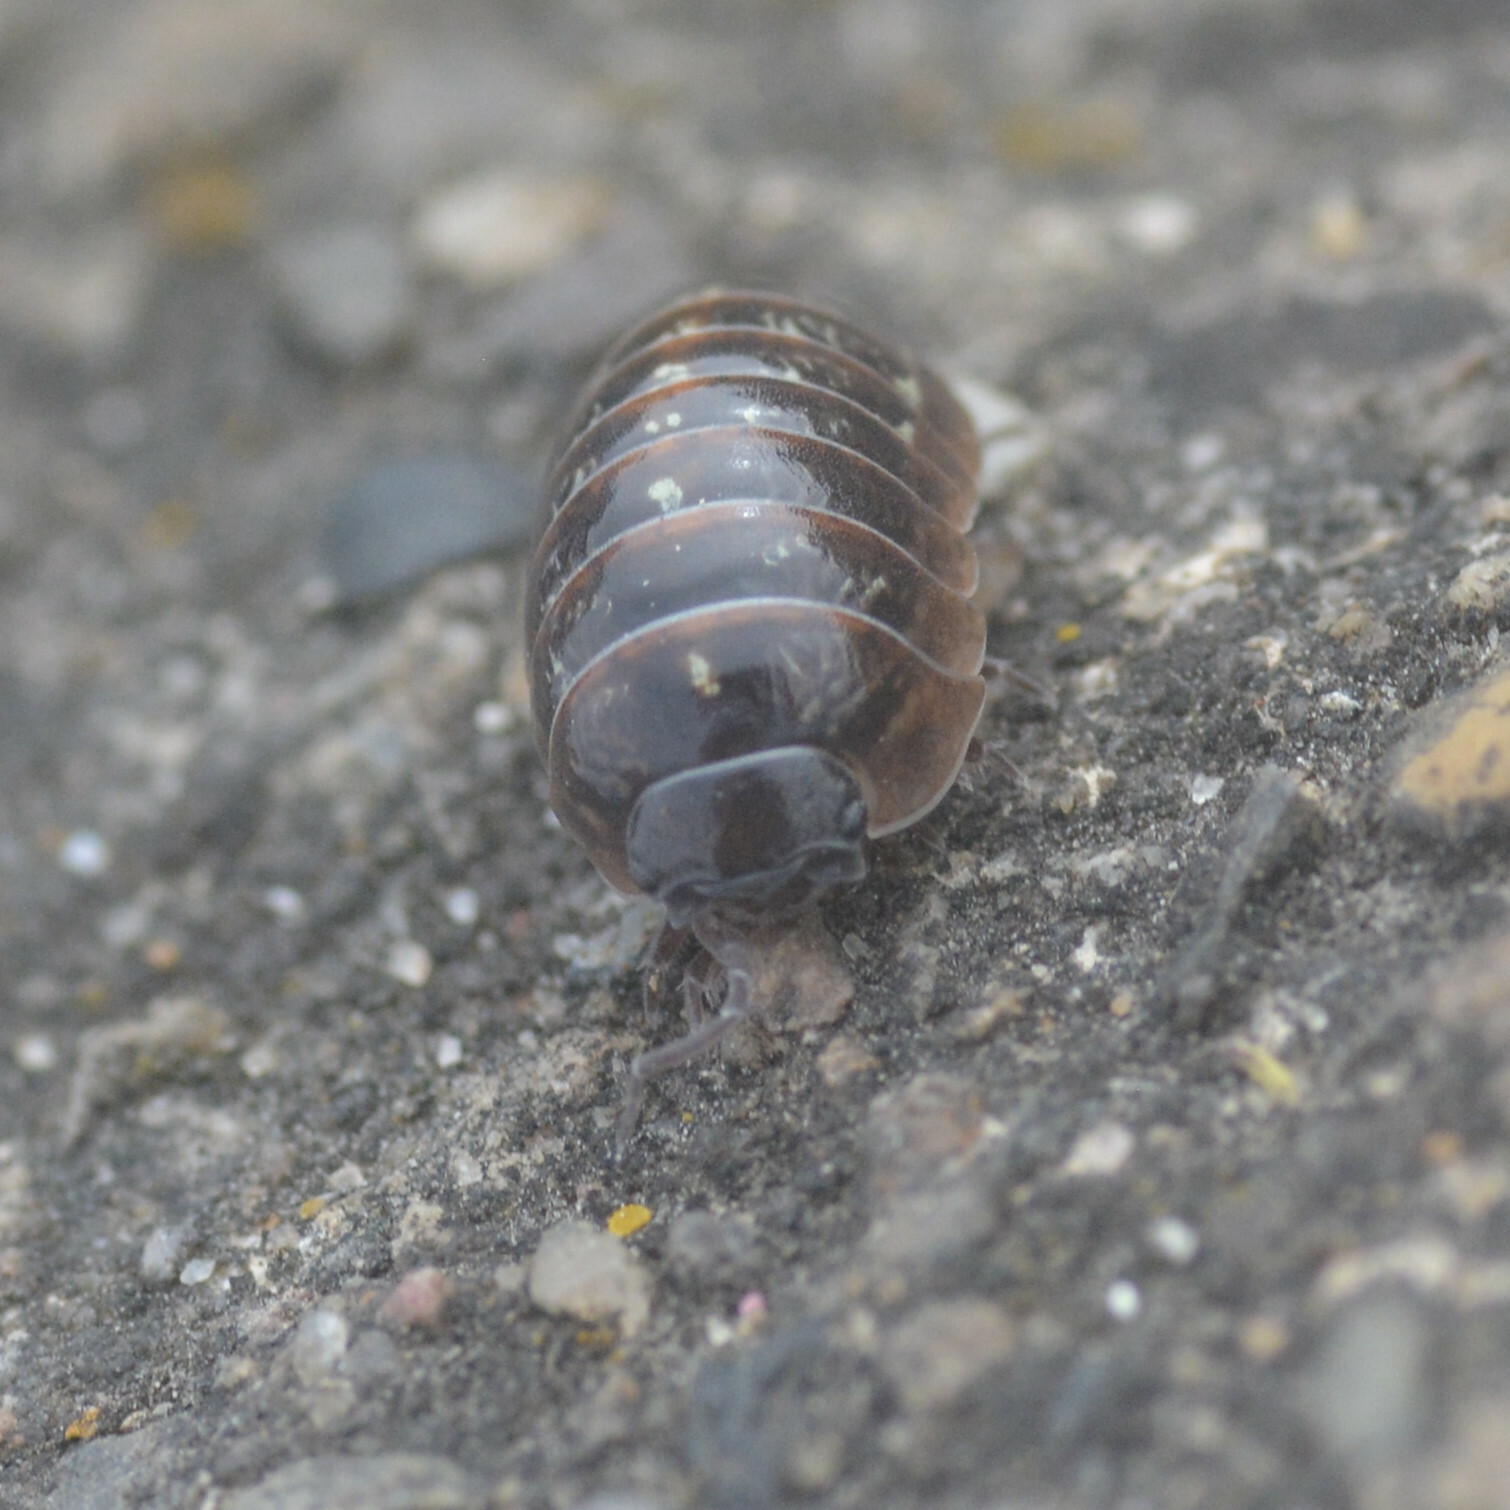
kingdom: Animalia
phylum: Arthropoda
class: Malacostraca
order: Isopoda
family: Armadillidiidae
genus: Armadillidium
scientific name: Armadillidium vulgare
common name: Common pill woodlouse
